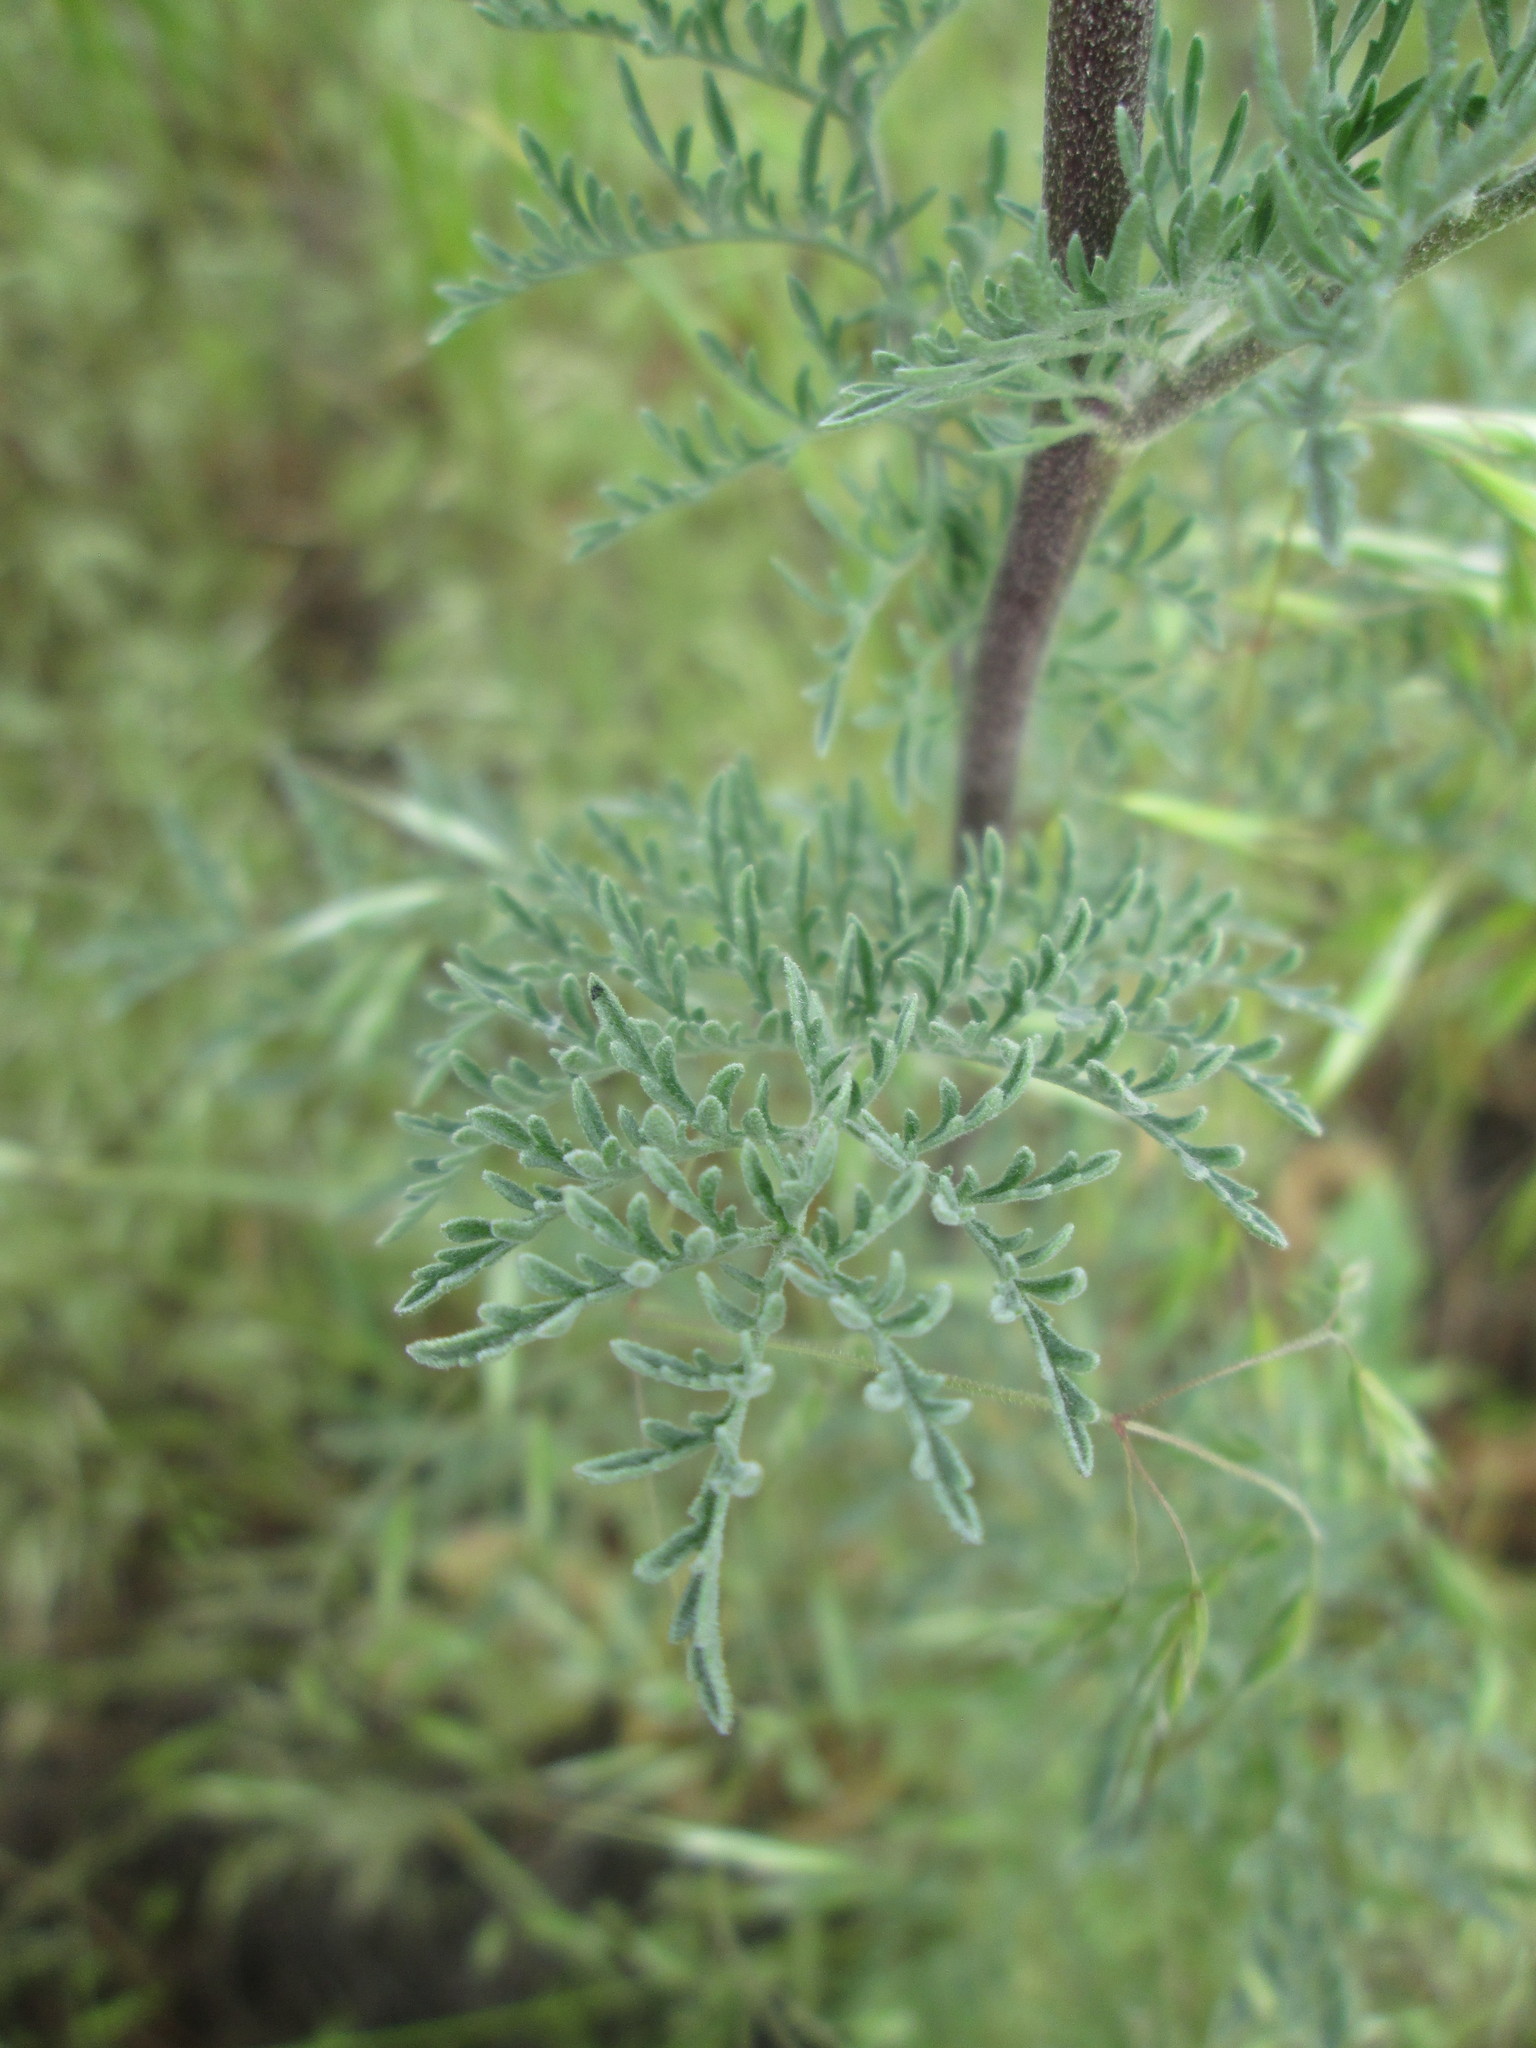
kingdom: Plantae
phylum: Tracheophyta
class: Magnoliopsida
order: Brassicales
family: Brassicaceae
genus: Descurainia
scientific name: Descurainia sophia
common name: Flixweed
